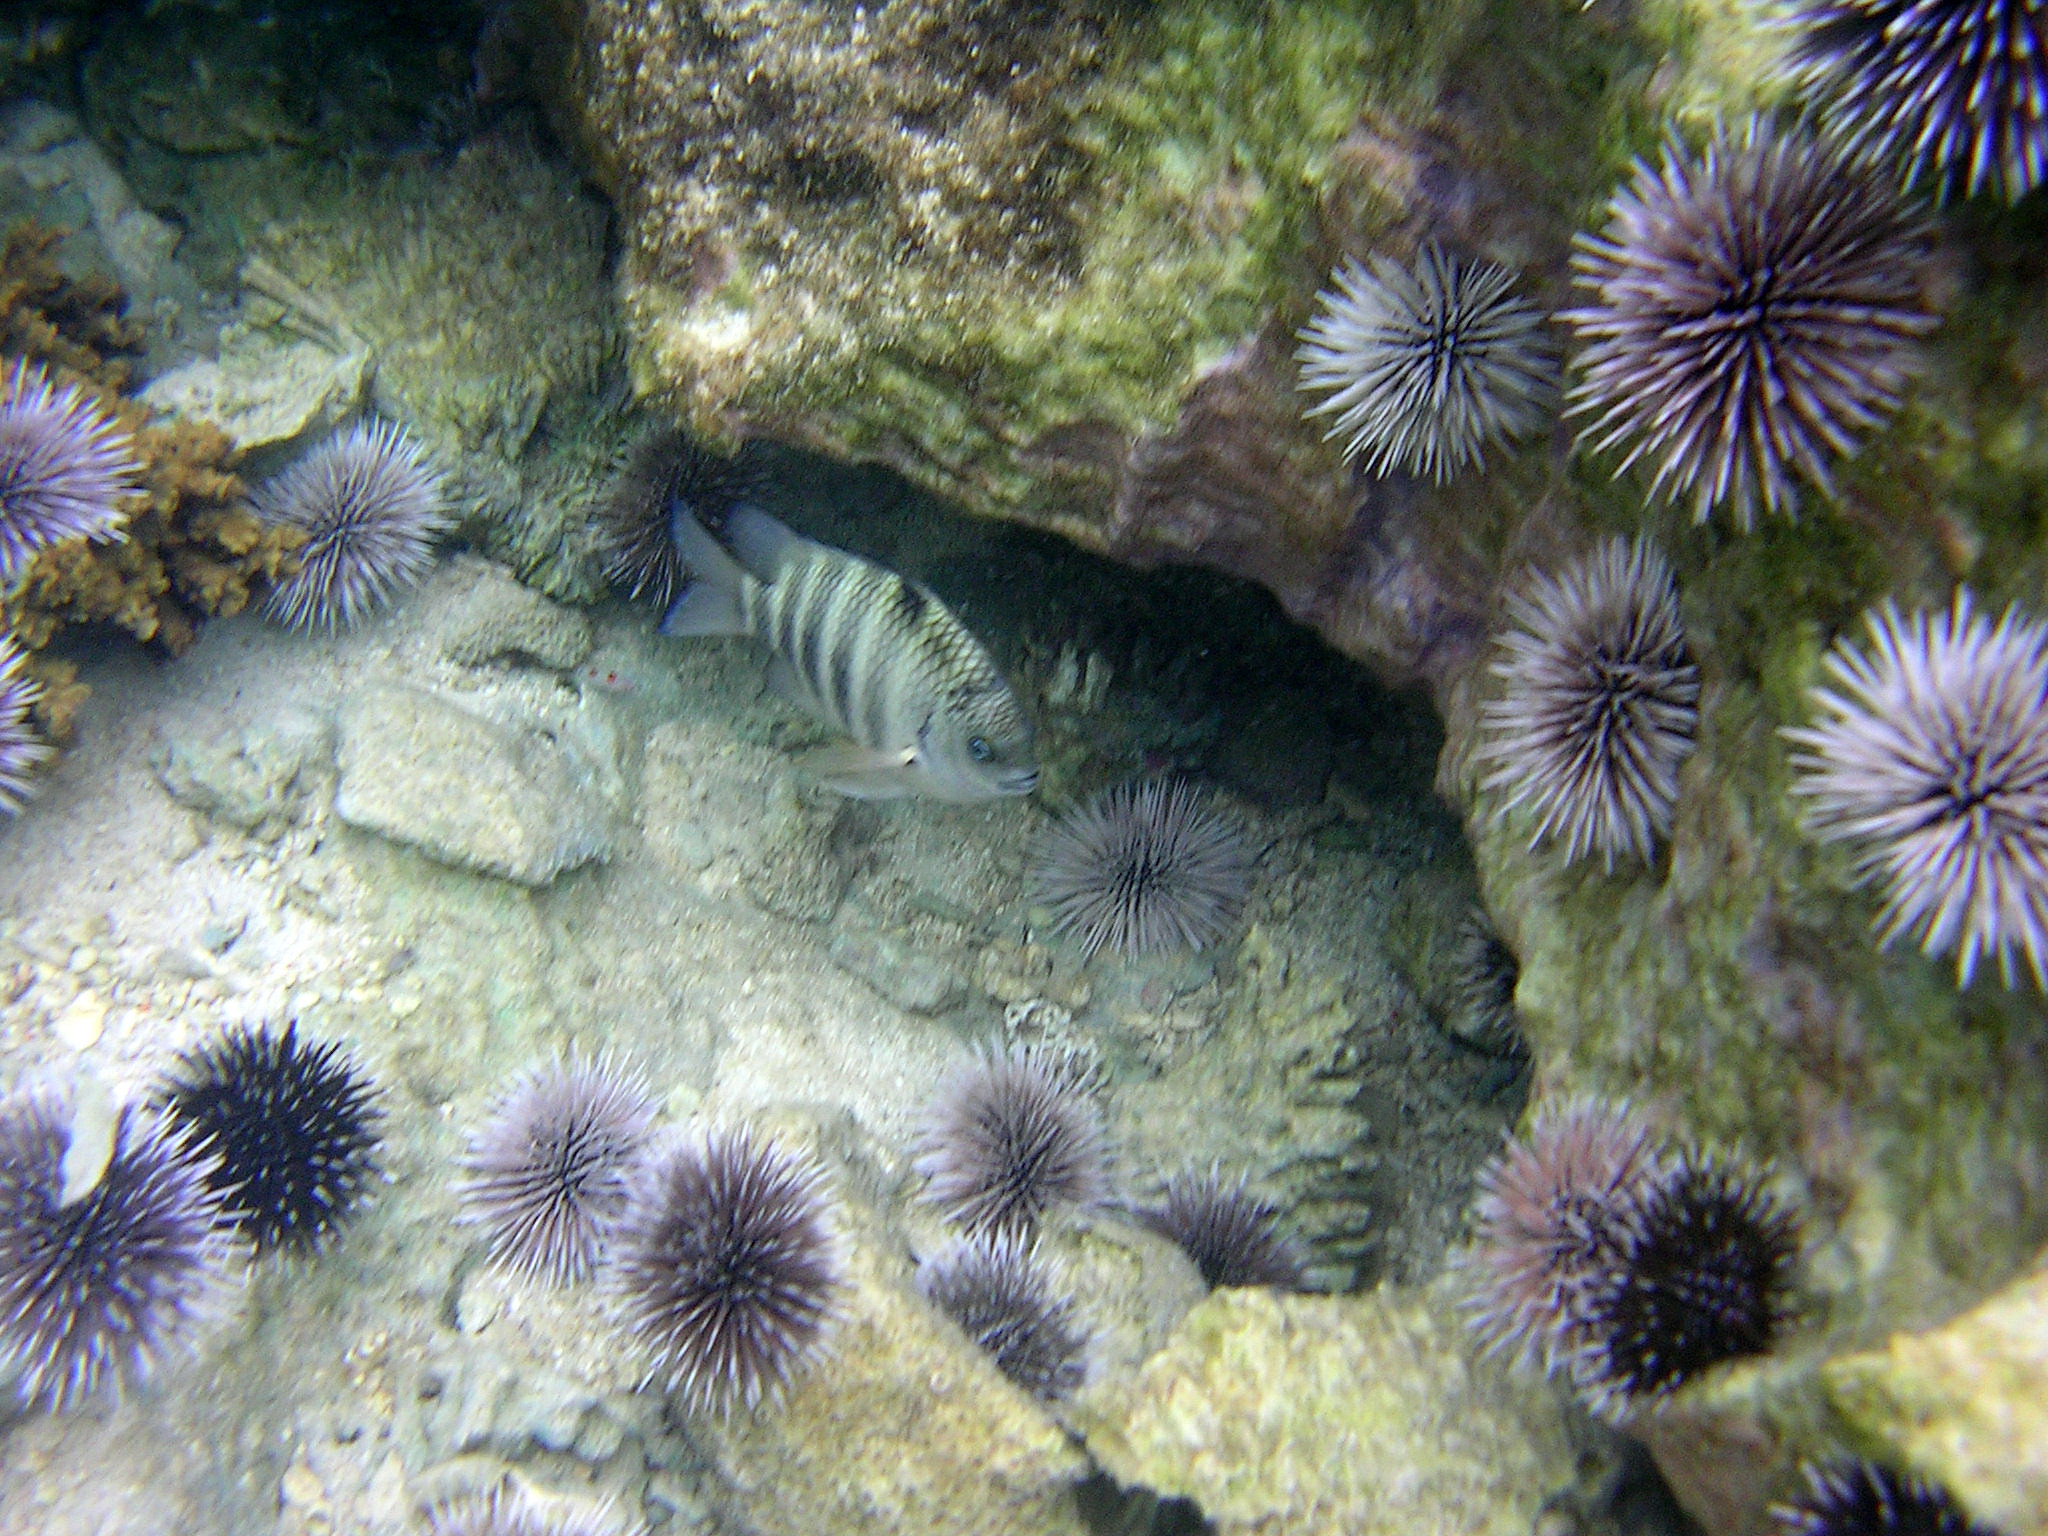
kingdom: Animalia
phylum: Chordata
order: Perciformes
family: Pomacentridae
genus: Abudefduf
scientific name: Abudefduf septemfasciatus
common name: Banded sergeant
